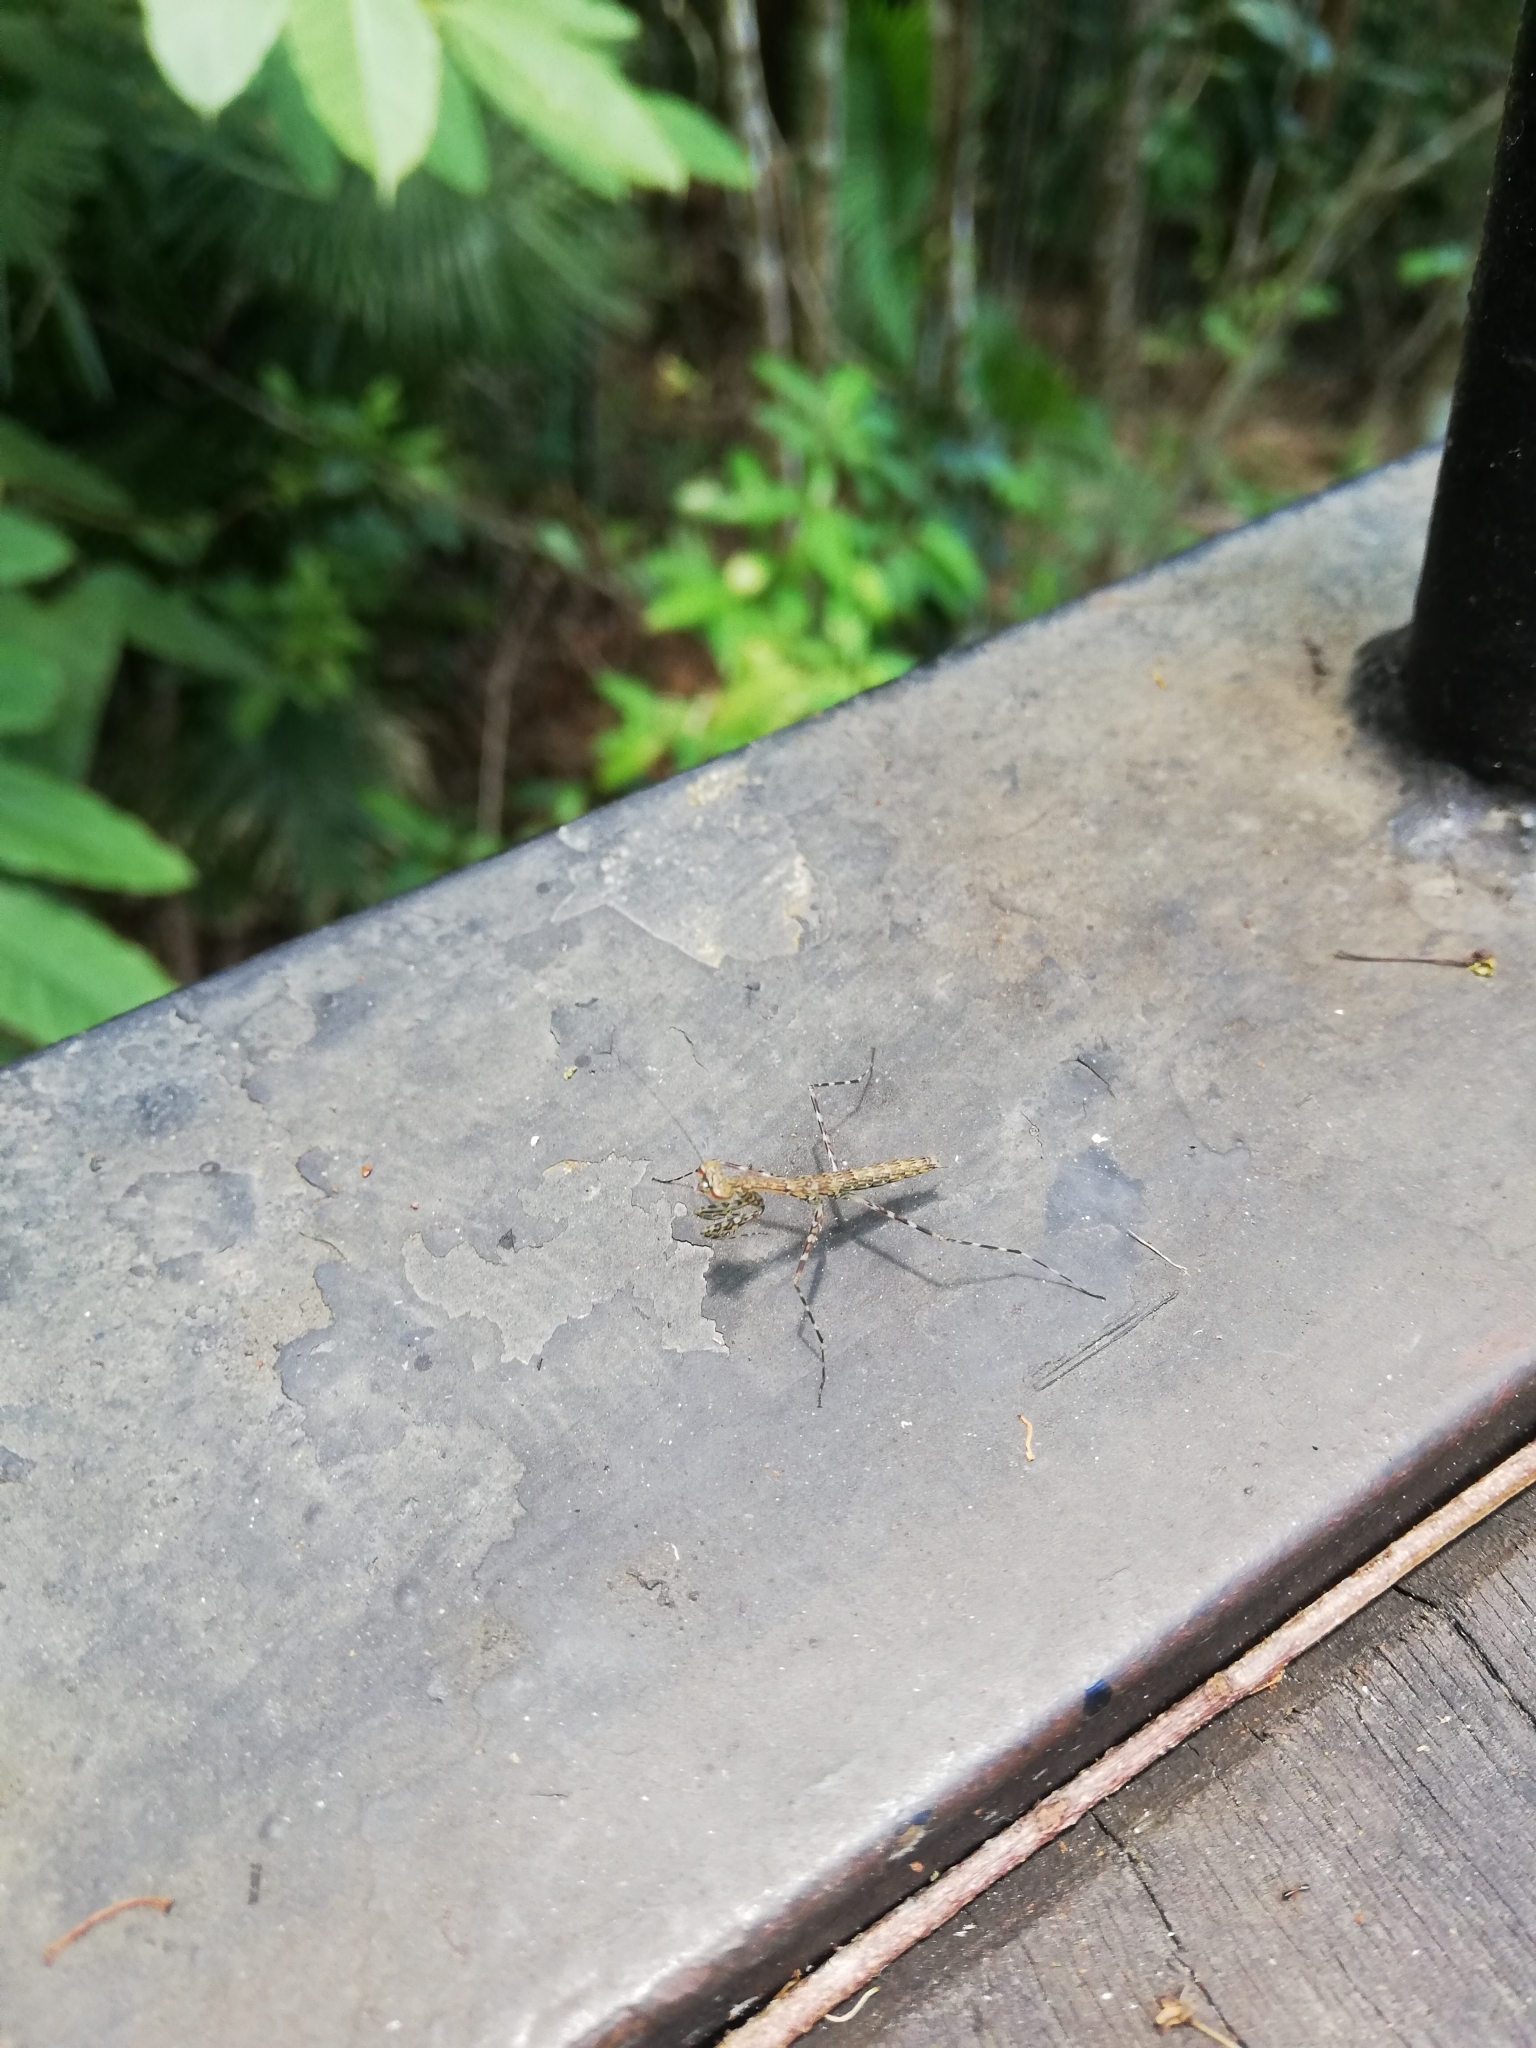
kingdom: Animalia
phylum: Arthropoda
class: Insecta
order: Mantodea
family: Nanomantidae
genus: Ciulfina
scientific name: Ciulfina rentzi
